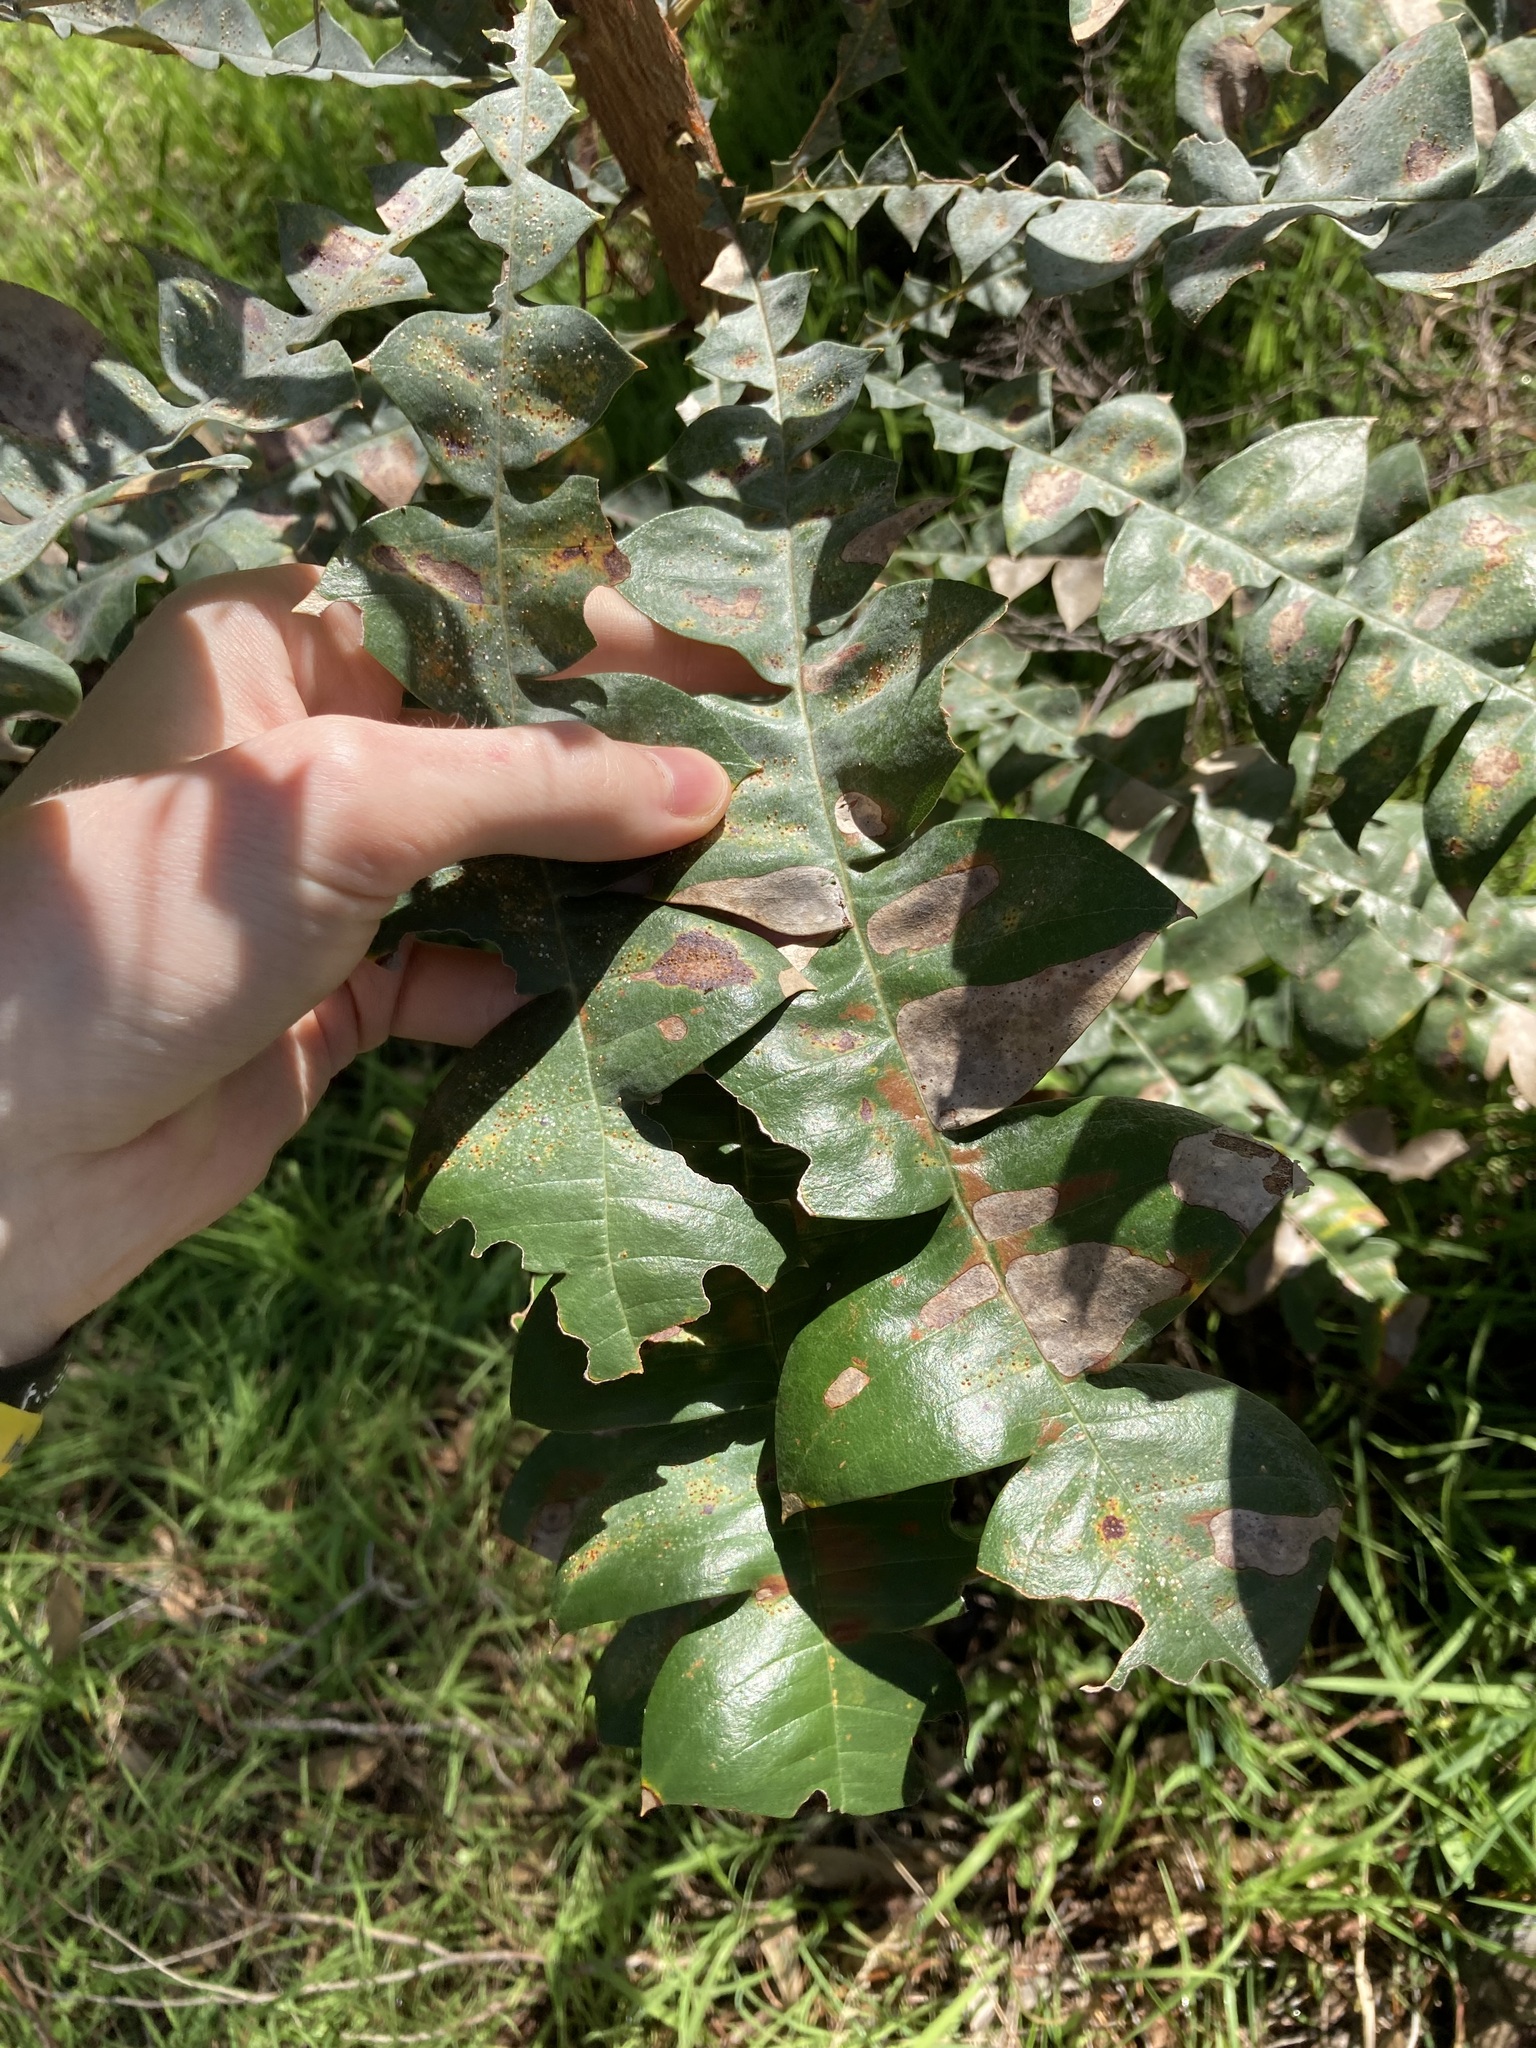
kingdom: Plantae
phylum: Tracheophyta
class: Magnoliopsida
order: Proteales
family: Proteaceae
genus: Banksia
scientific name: Banksia grandis
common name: Giant banksia
